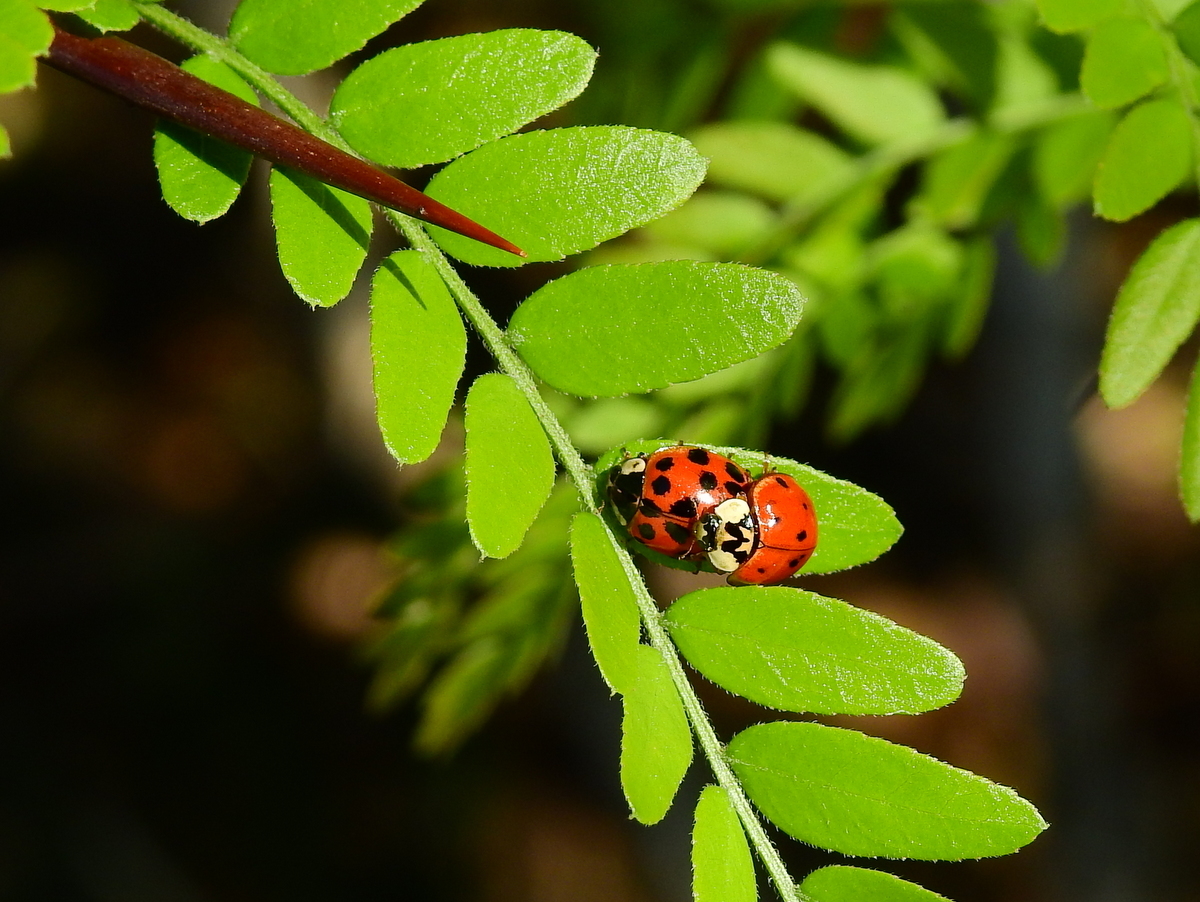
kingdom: Animalia
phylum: Arthropoda
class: Insecta
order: Coleoptera
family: Coccinellidae
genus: Harmonia
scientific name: Harmonia axyridis
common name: Harlequin ladybird
